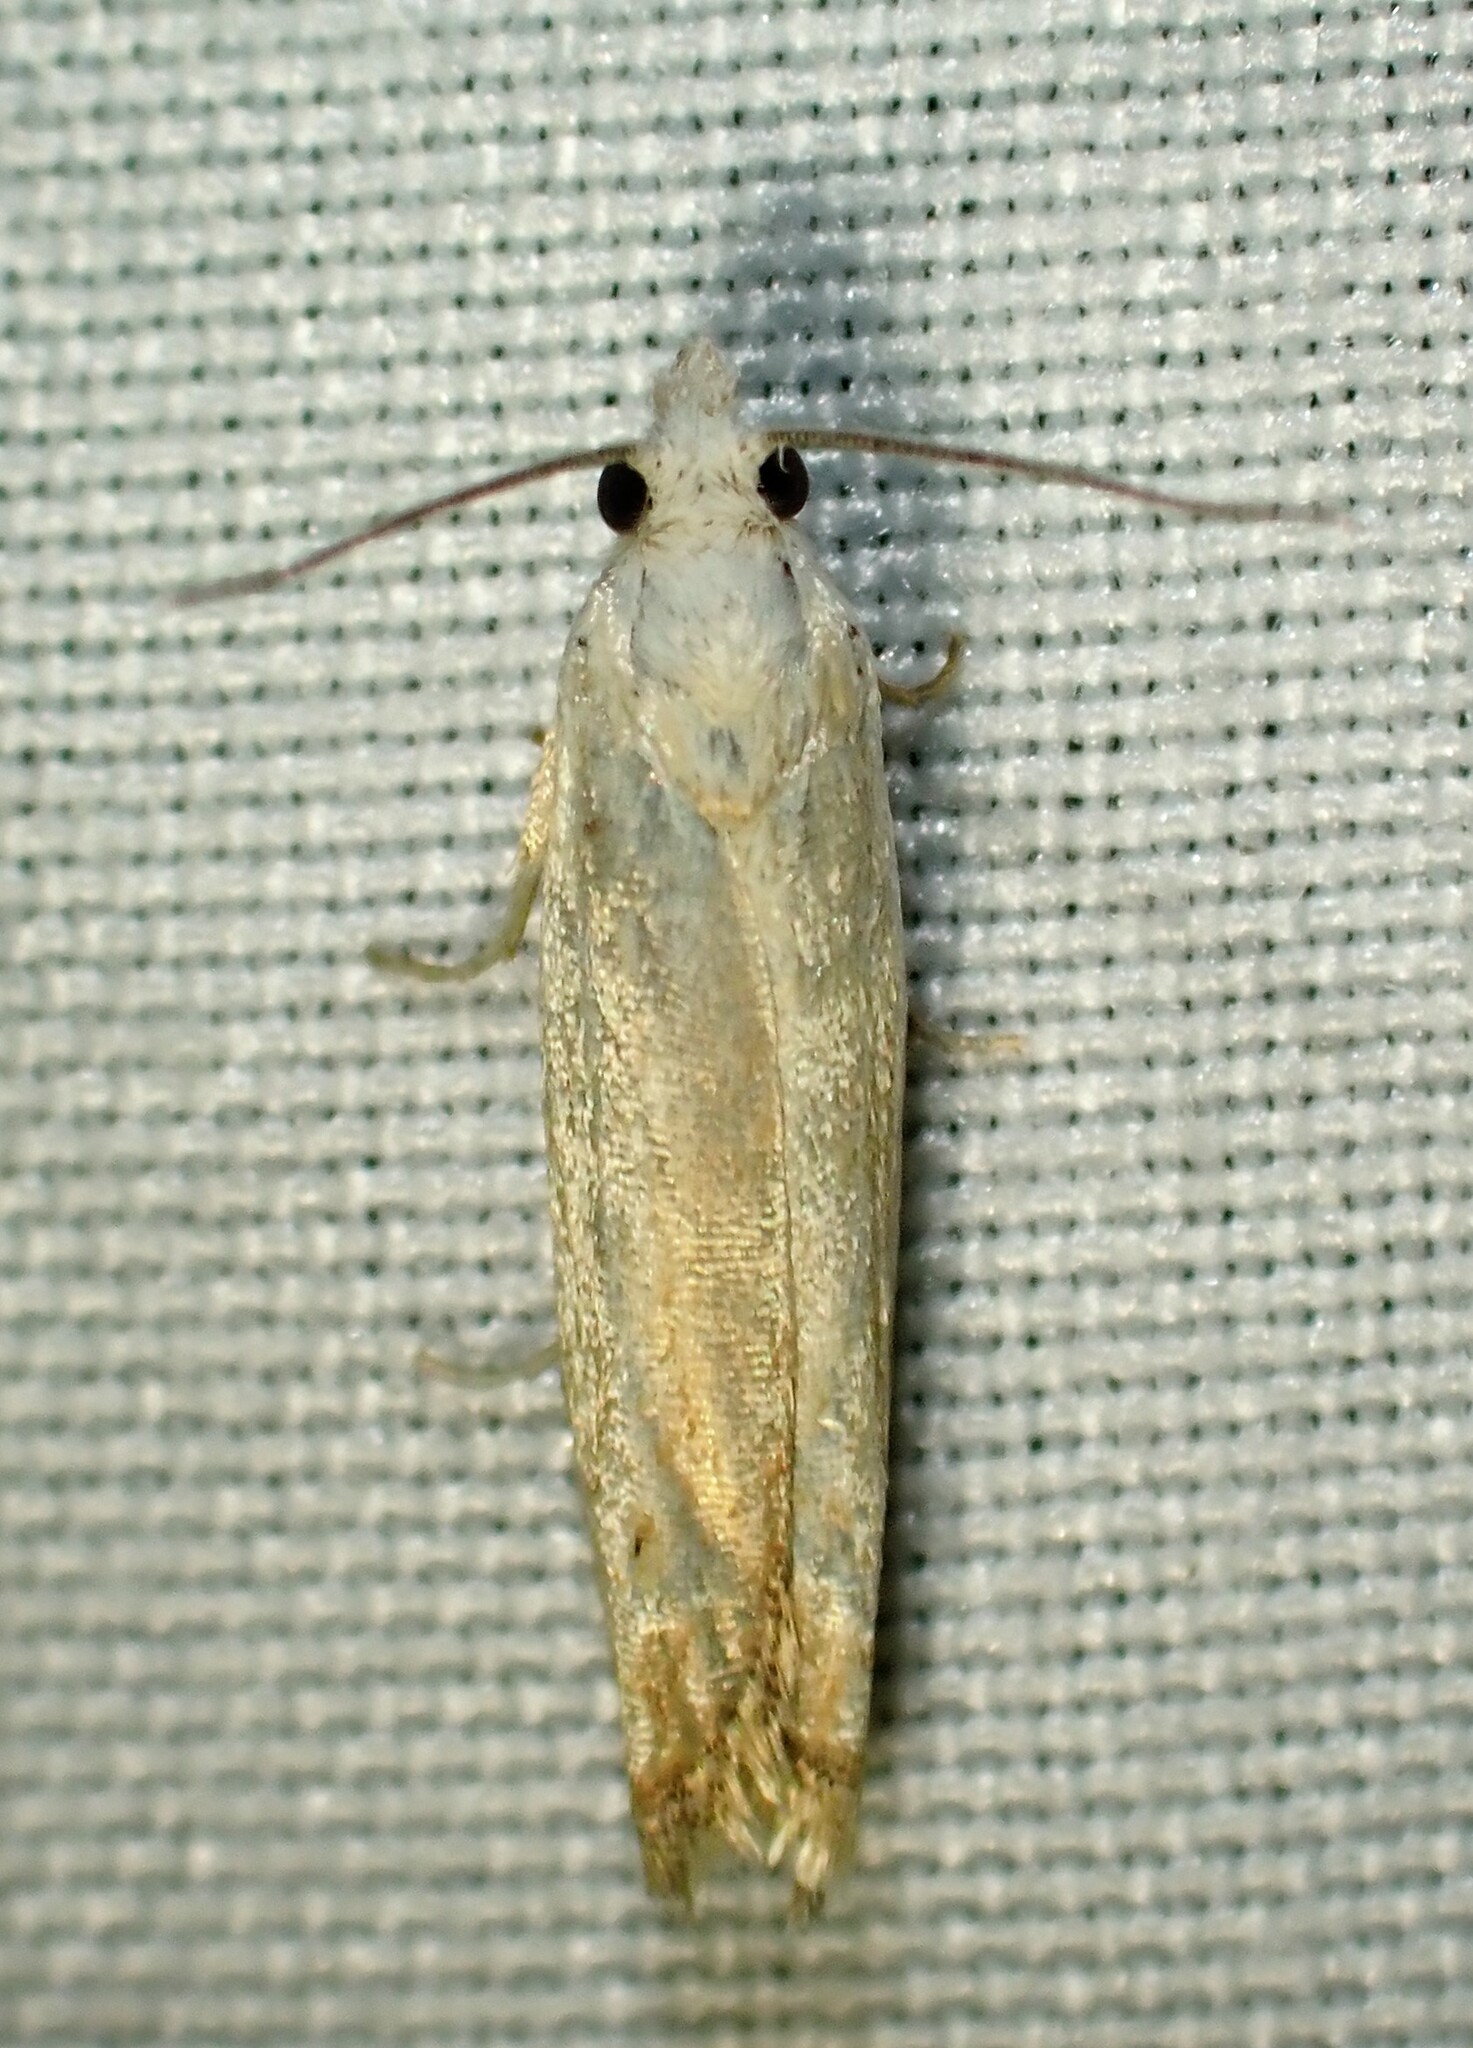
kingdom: Animalia
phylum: Arthropoda
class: Insecta
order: Lepidoptera
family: Tortricidae
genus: Pelochrista
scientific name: Pelochrista argentialbana
